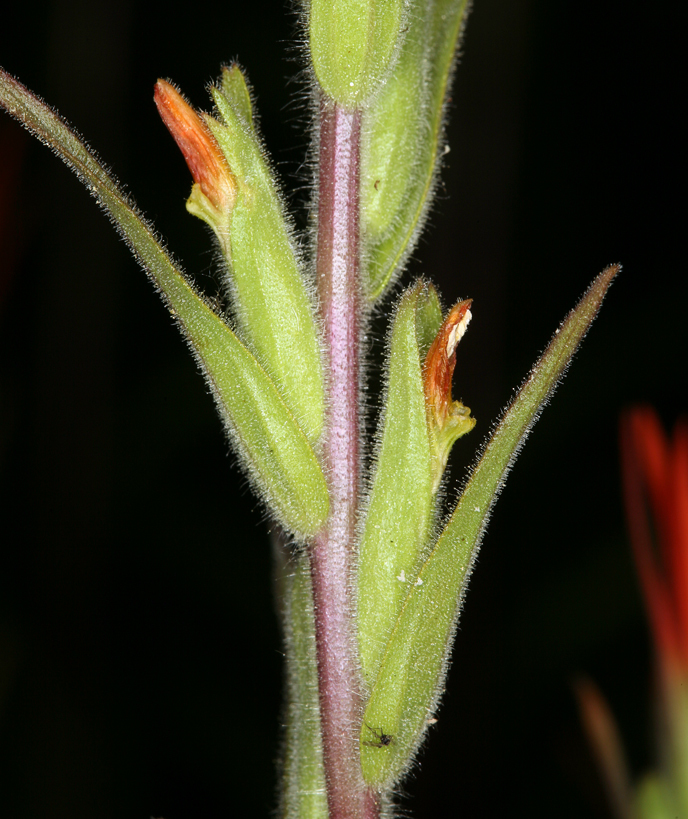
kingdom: Plantae
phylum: Tracheophyta
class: Magnoliopsida
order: Lamiales
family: Orobanchaceae
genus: Castilleja
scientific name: Castilleja minor
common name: Seep paintbrush
